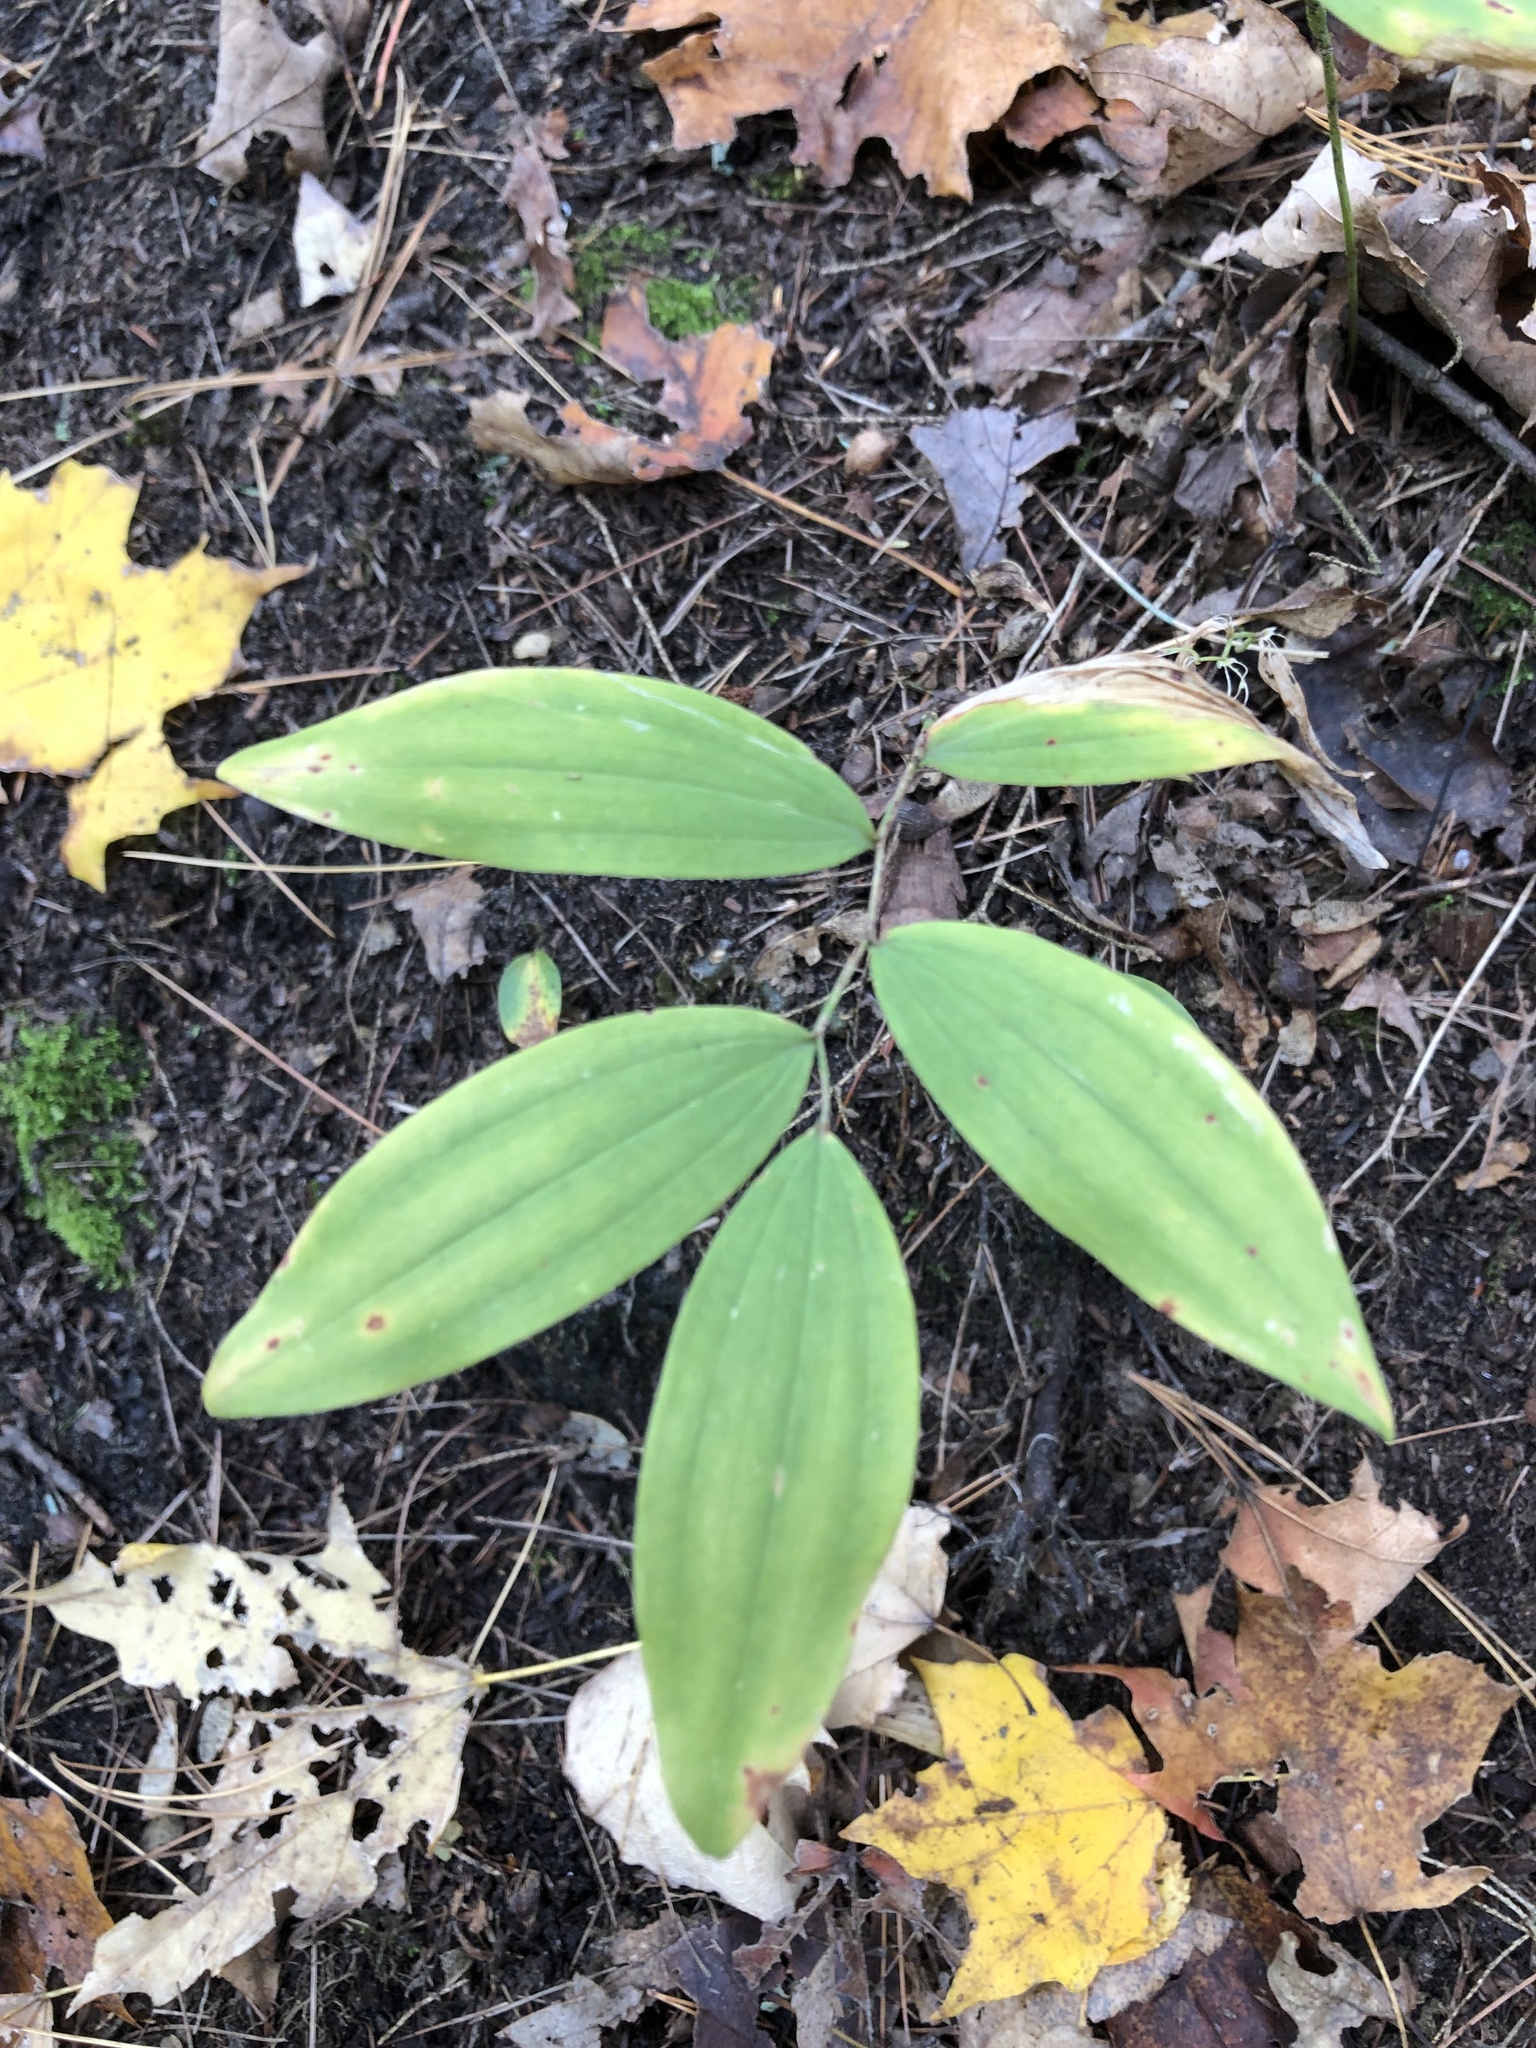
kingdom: Plantae
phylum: Tracheophyta
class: Liliopsida
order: Asparagales
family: Asparagaceae
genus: Polygonatum
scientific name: Polygonatum pubescens
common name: Downy solomon's seal
